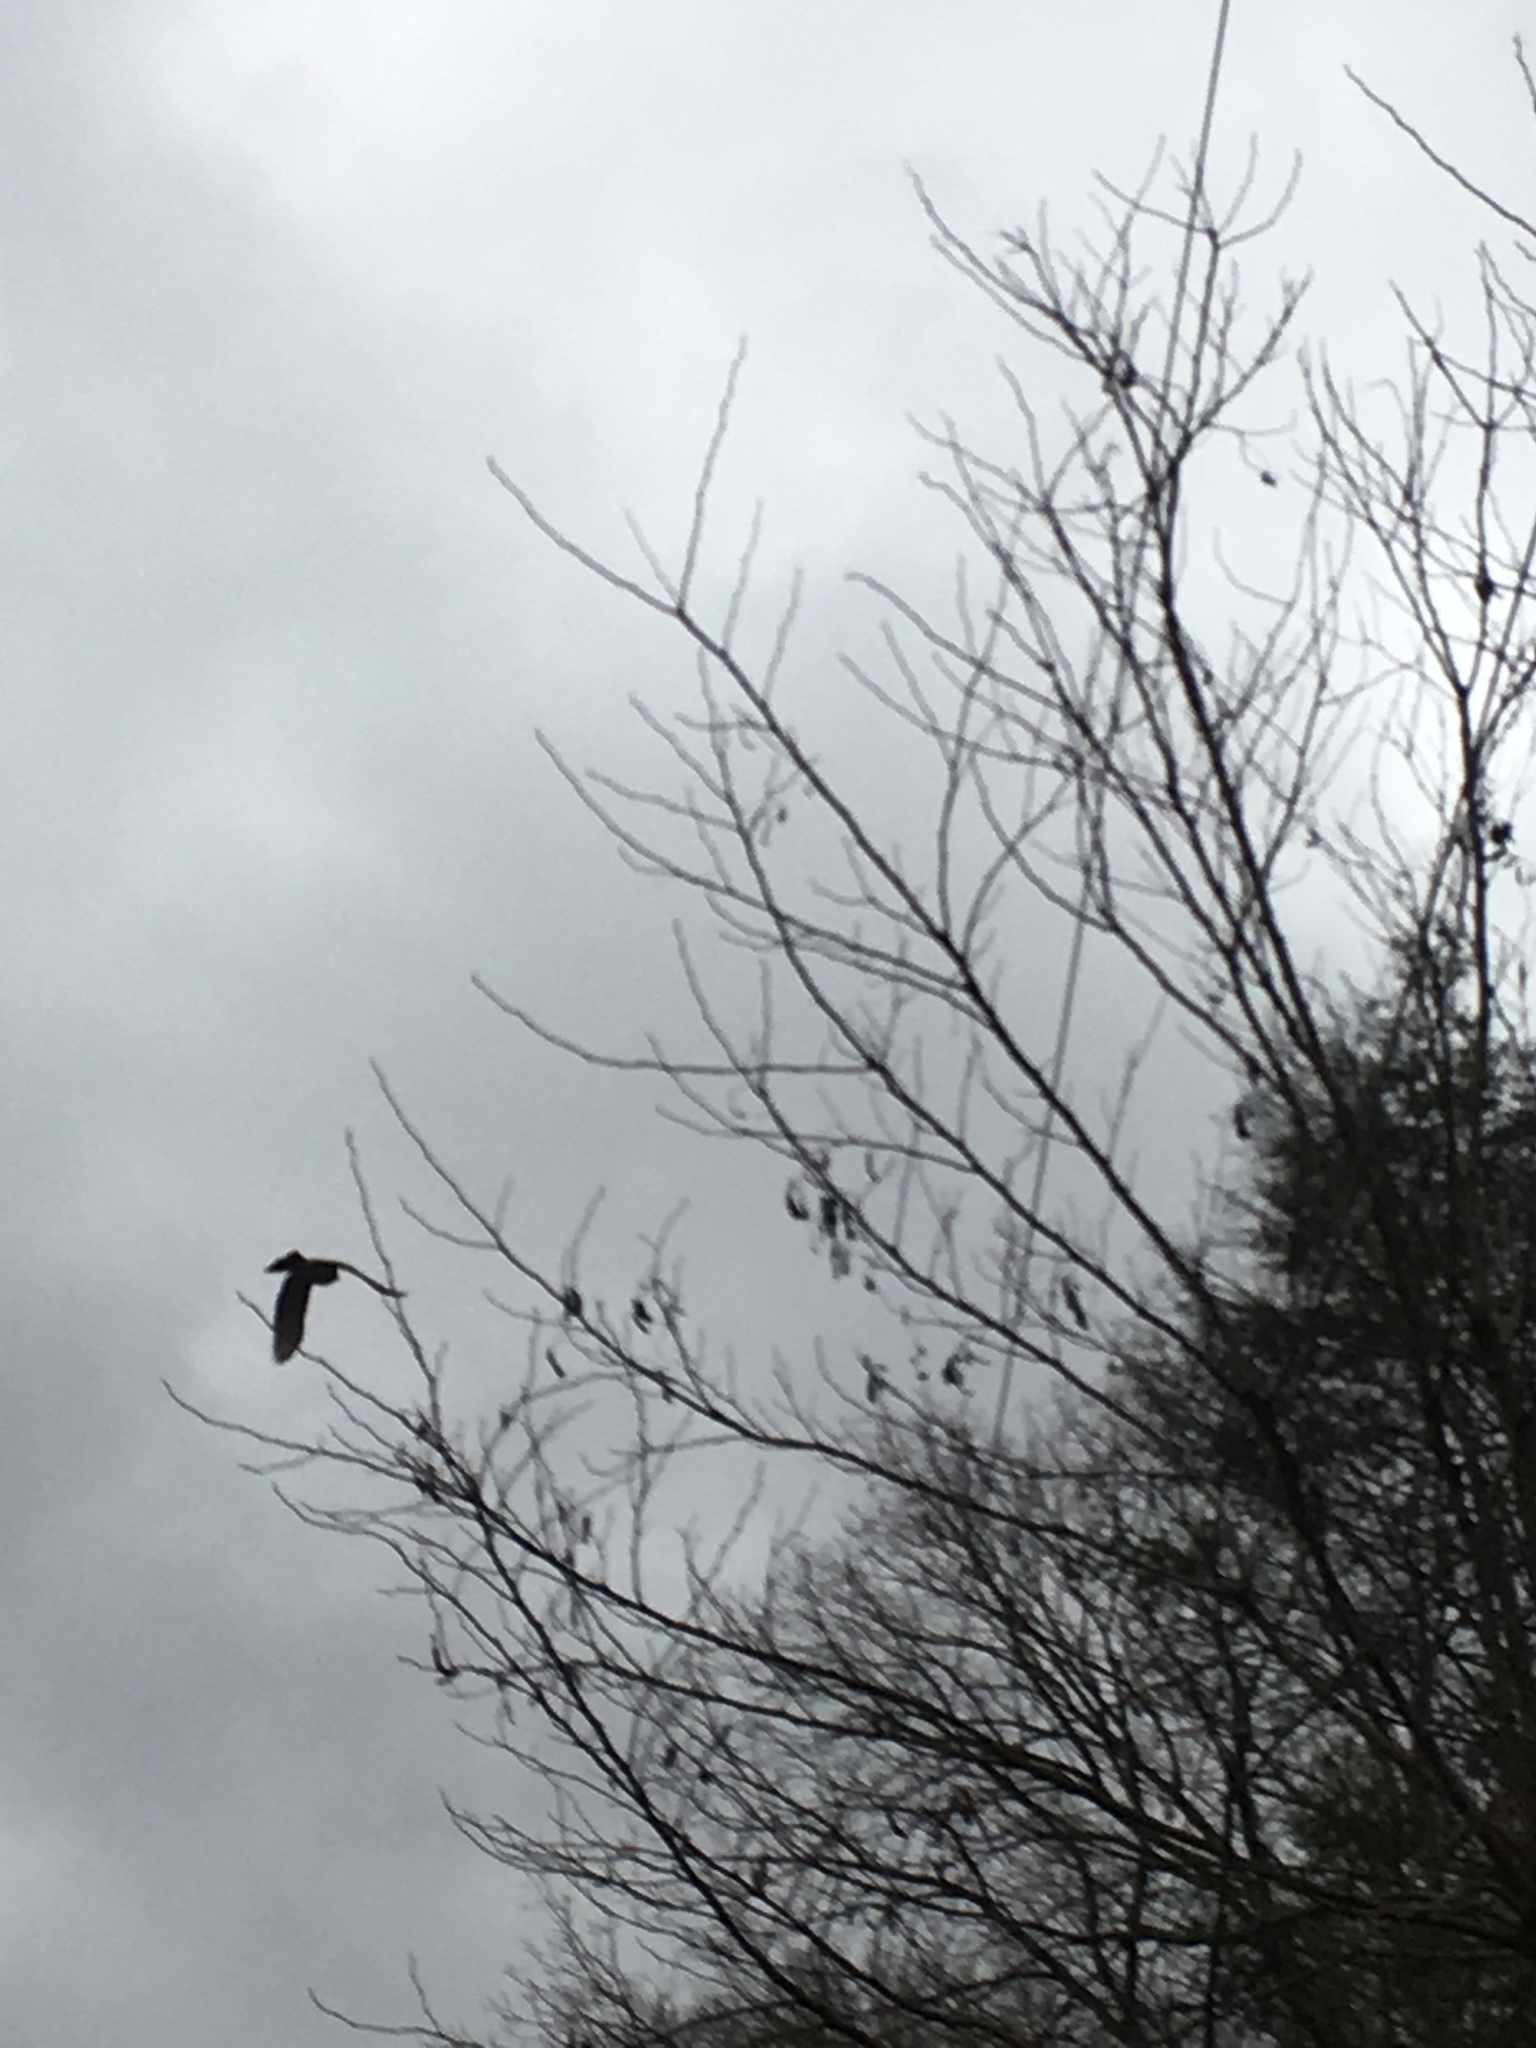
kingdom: Animalia
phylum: Chordata
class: Aves
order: Accipitriformes
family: Accipitridae
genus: Accipiter
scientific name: Accipiter
